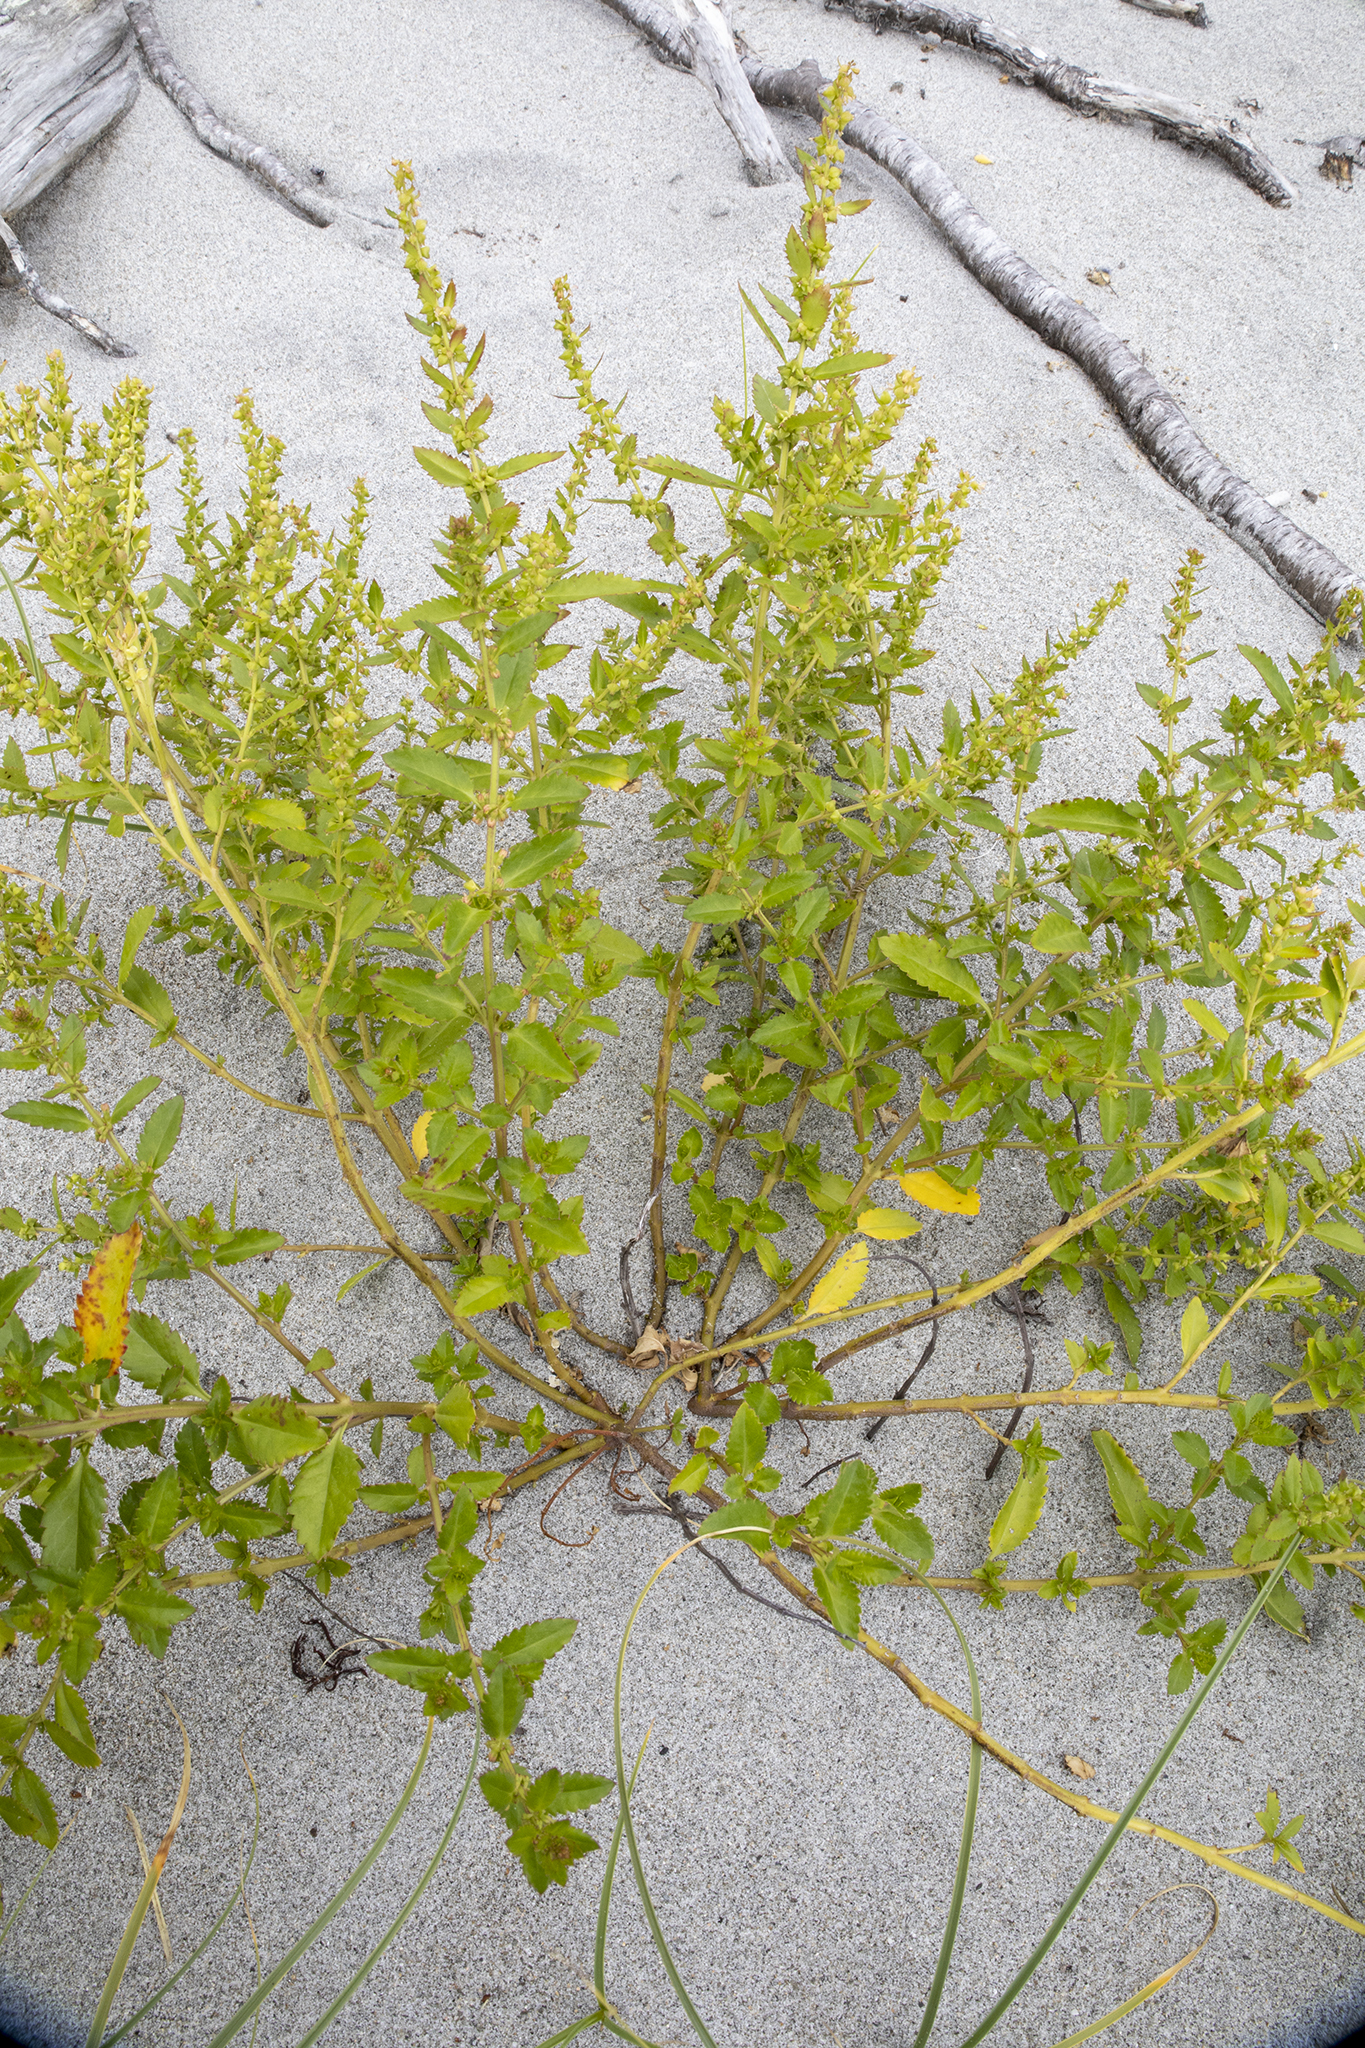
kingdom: Plantae
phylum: Tracheophyta
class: Magnoliopsida
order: Saxifragales
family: Haloragaceae
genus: Haloragis
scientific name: Haloragis erecta
